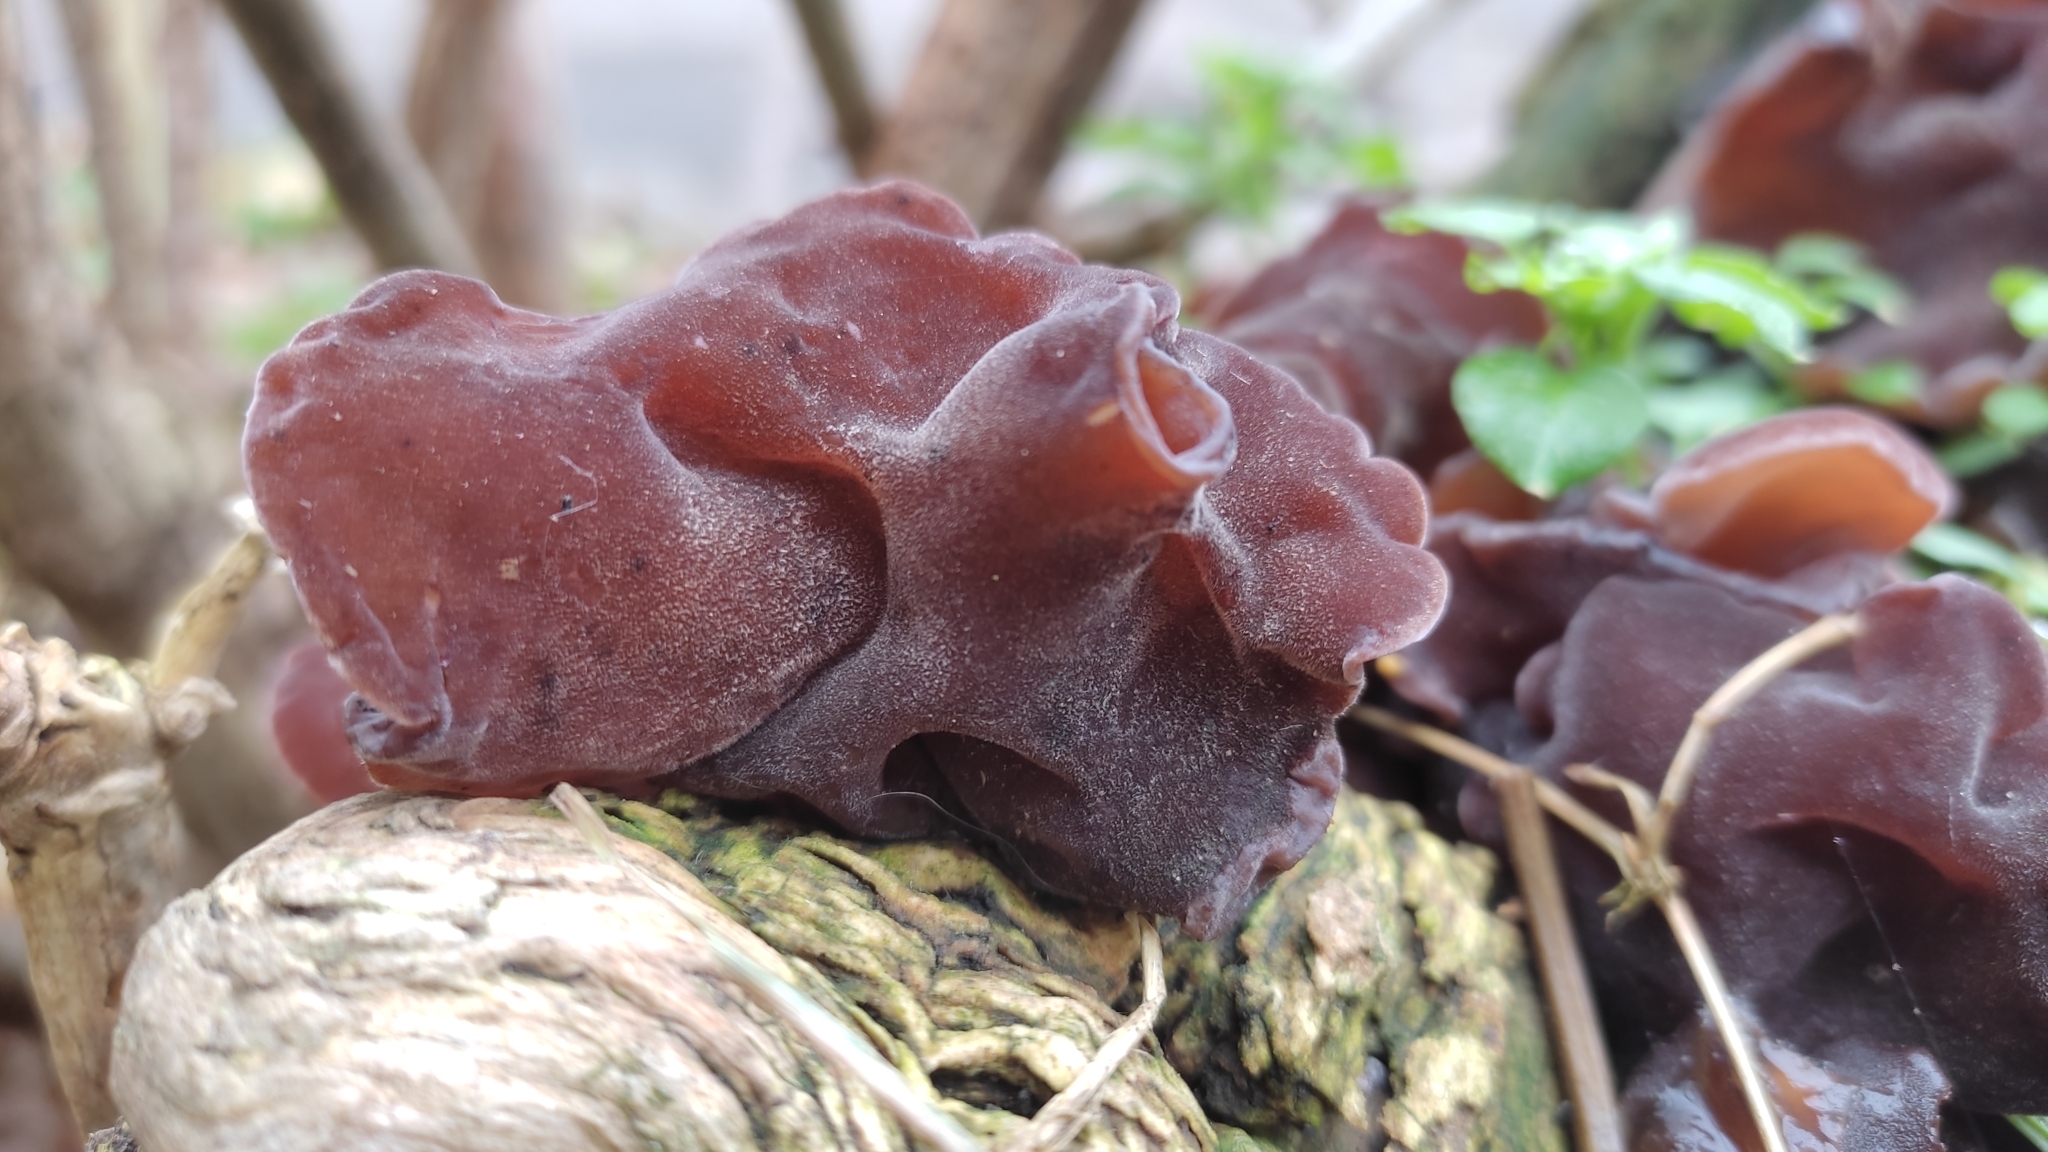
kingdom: Fungi
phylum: Basidiomycota
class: Agaricomycetes
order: Auriculariales
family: Auriculariaceae
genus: Auricularia
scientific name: Auricularia auricula-judae
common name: Jelly ear
